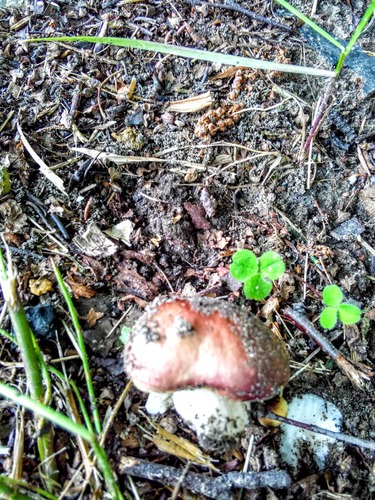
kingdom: Fungi
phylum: Basidiomycota
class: Agaricomycetes
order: Russulales
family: Russulaceae
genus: Russula
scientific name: Russula
